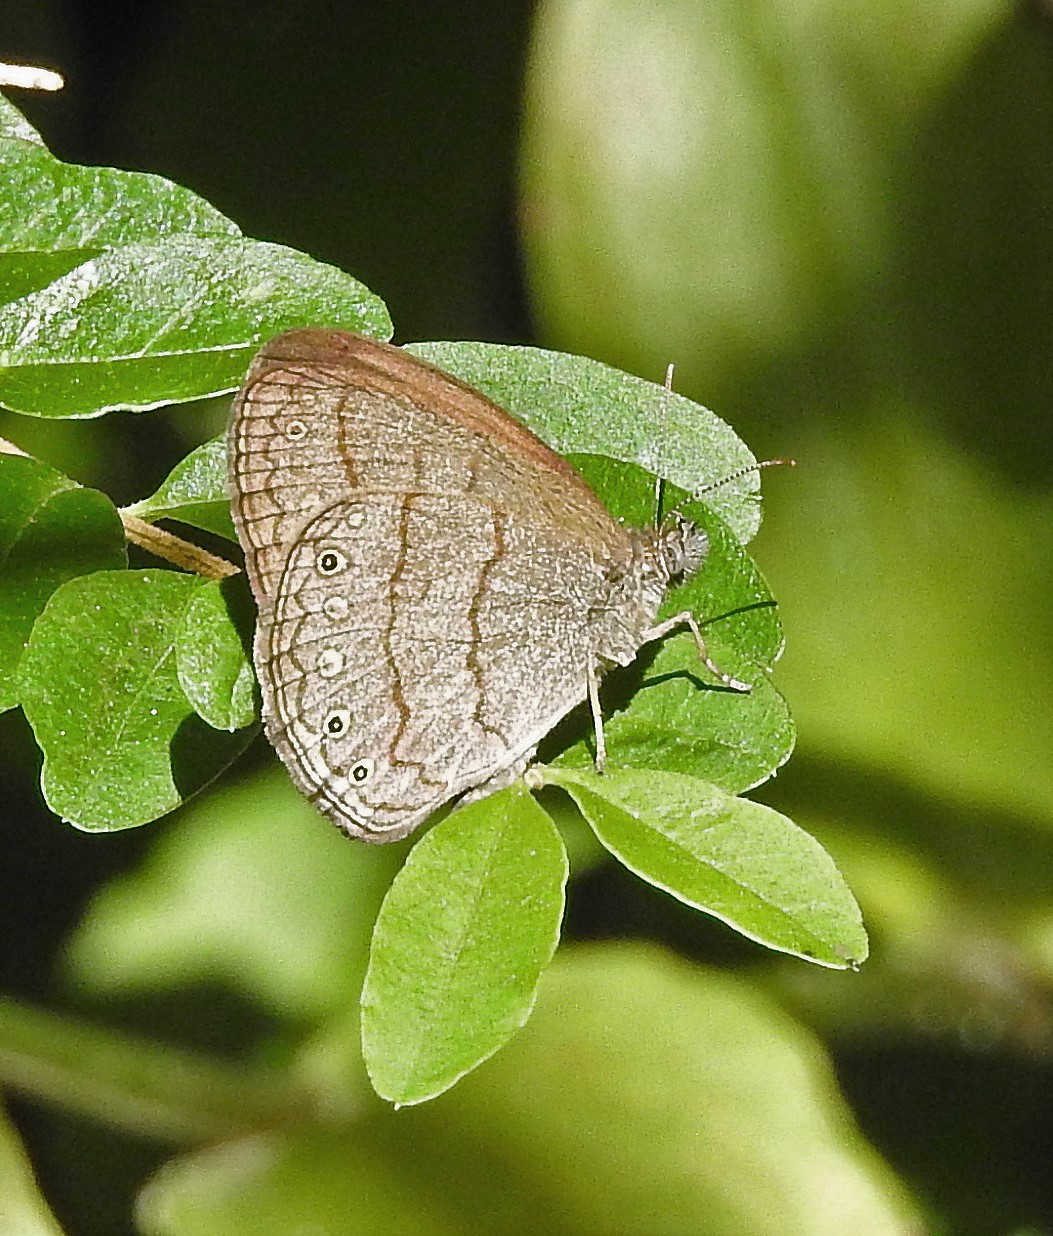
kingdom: Animalia
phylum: Arthropoda
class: Insecta
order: Lepidoptera
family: Nymphalidae
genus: Hermeuptychia
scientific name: Hermeuptychia isabella
